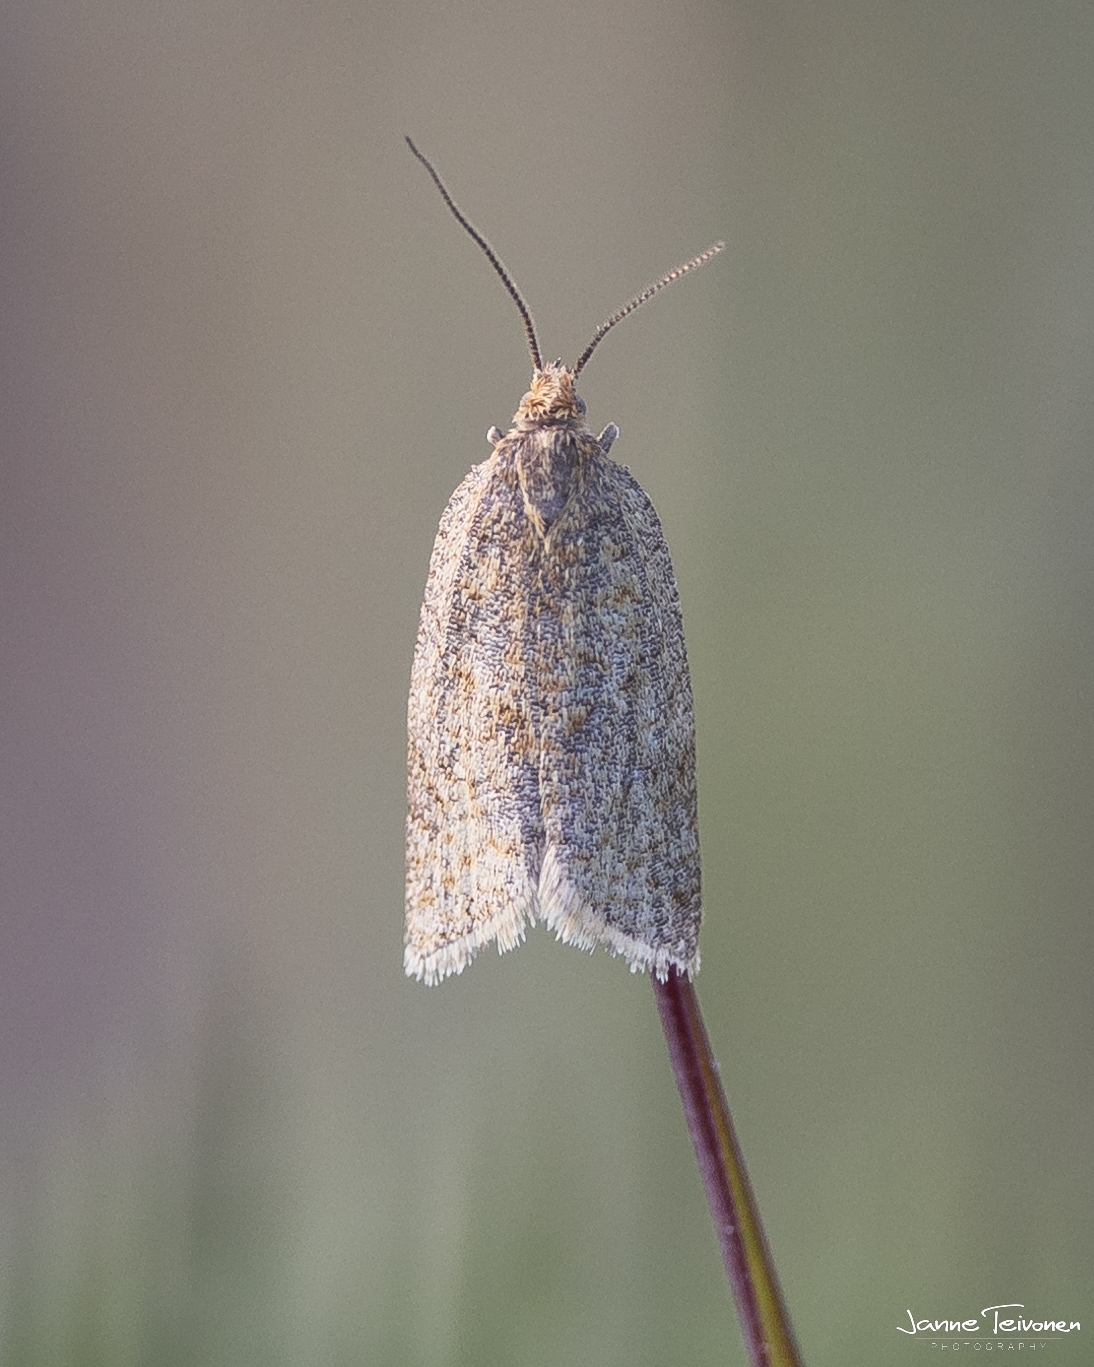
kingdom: Animalia
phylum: Arthropoda
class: Insecta
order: Lepidoptera
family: Tortricidae
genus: Clepsis
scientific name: Clepsis senecionana
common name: Obscure tortrix
